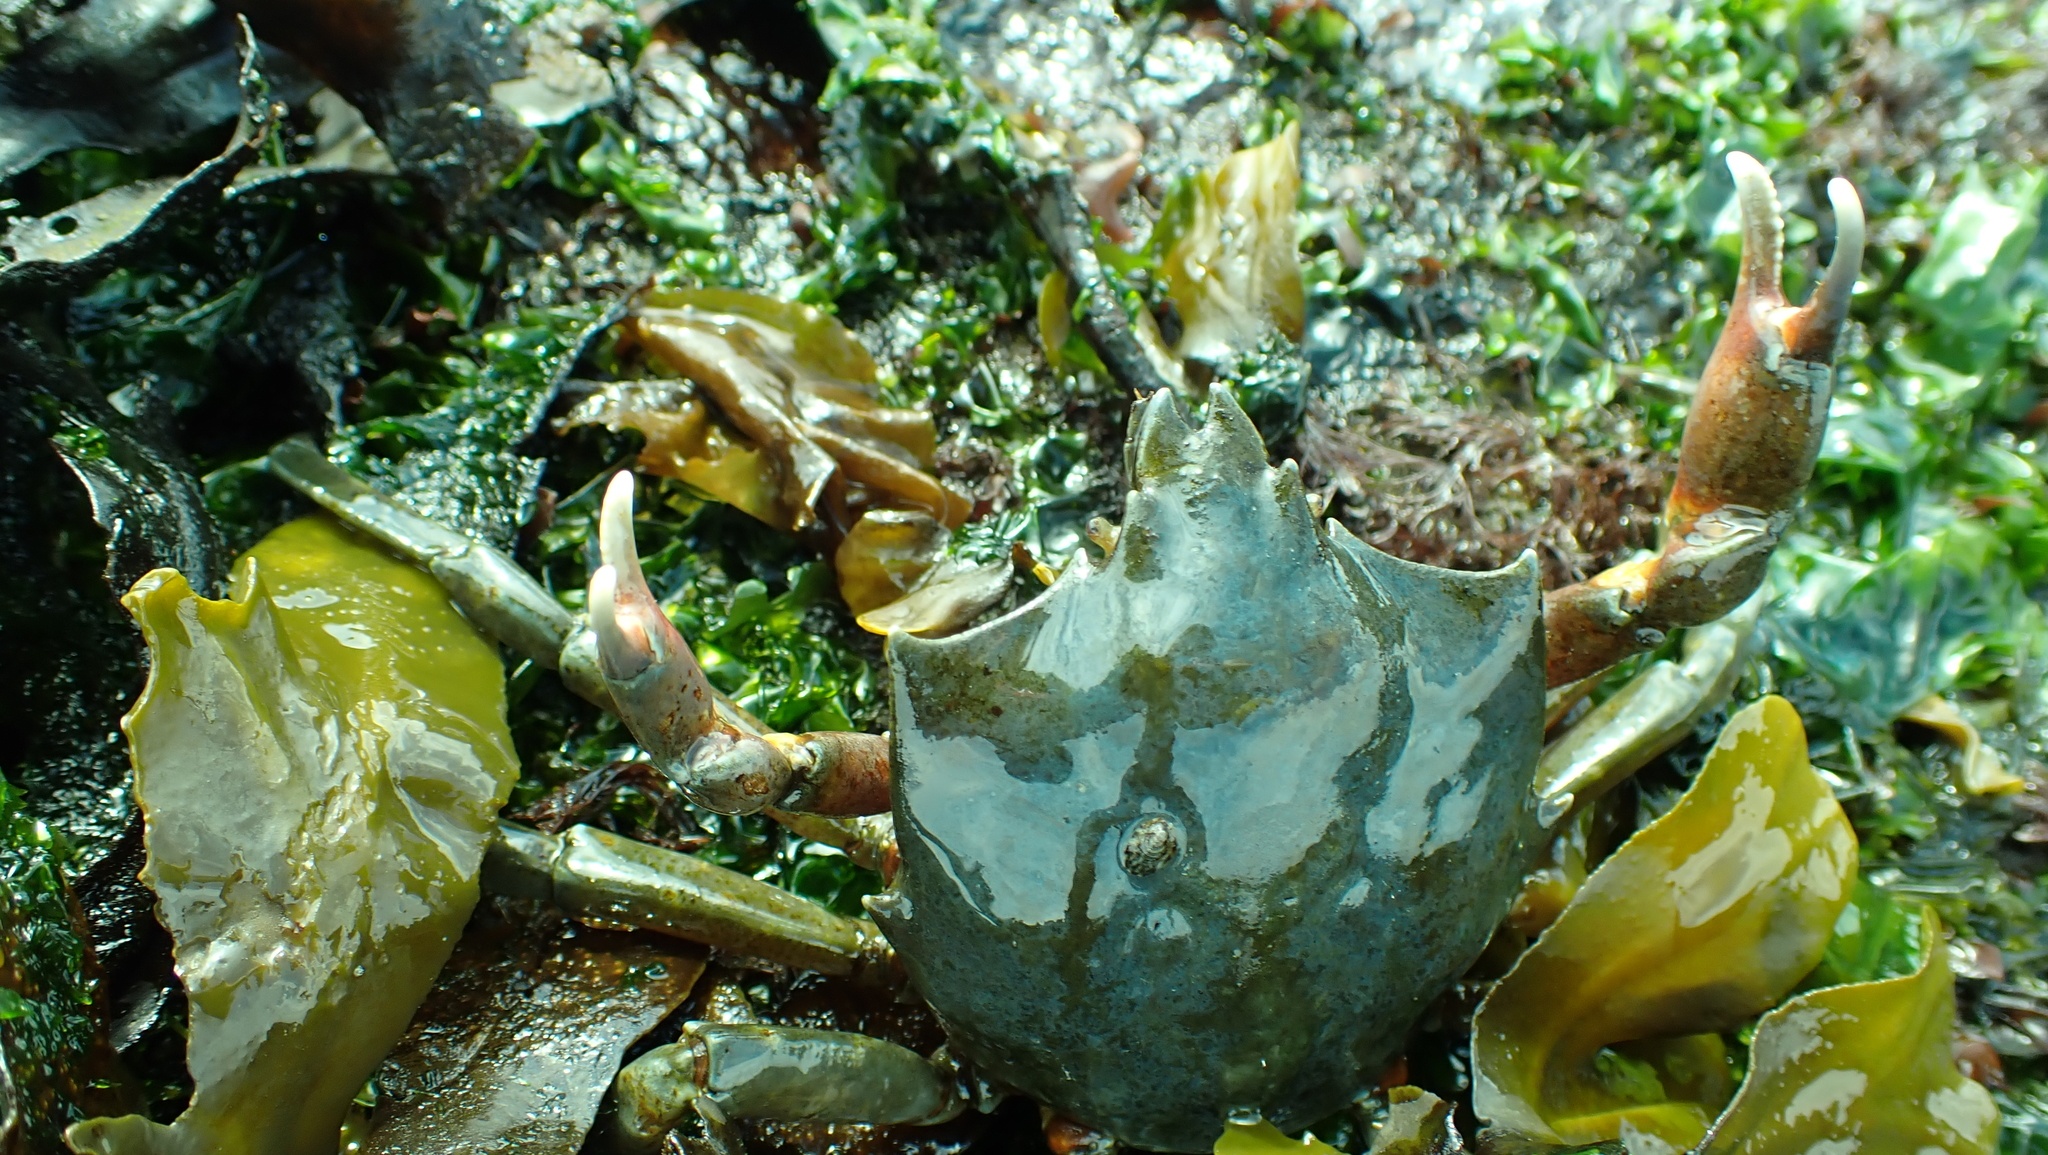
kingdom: Animalia
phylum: Arthropoda
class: Malacostraca
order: Decapoda
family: Epialtidae
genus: Pugettia
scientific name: Pugettia producta
